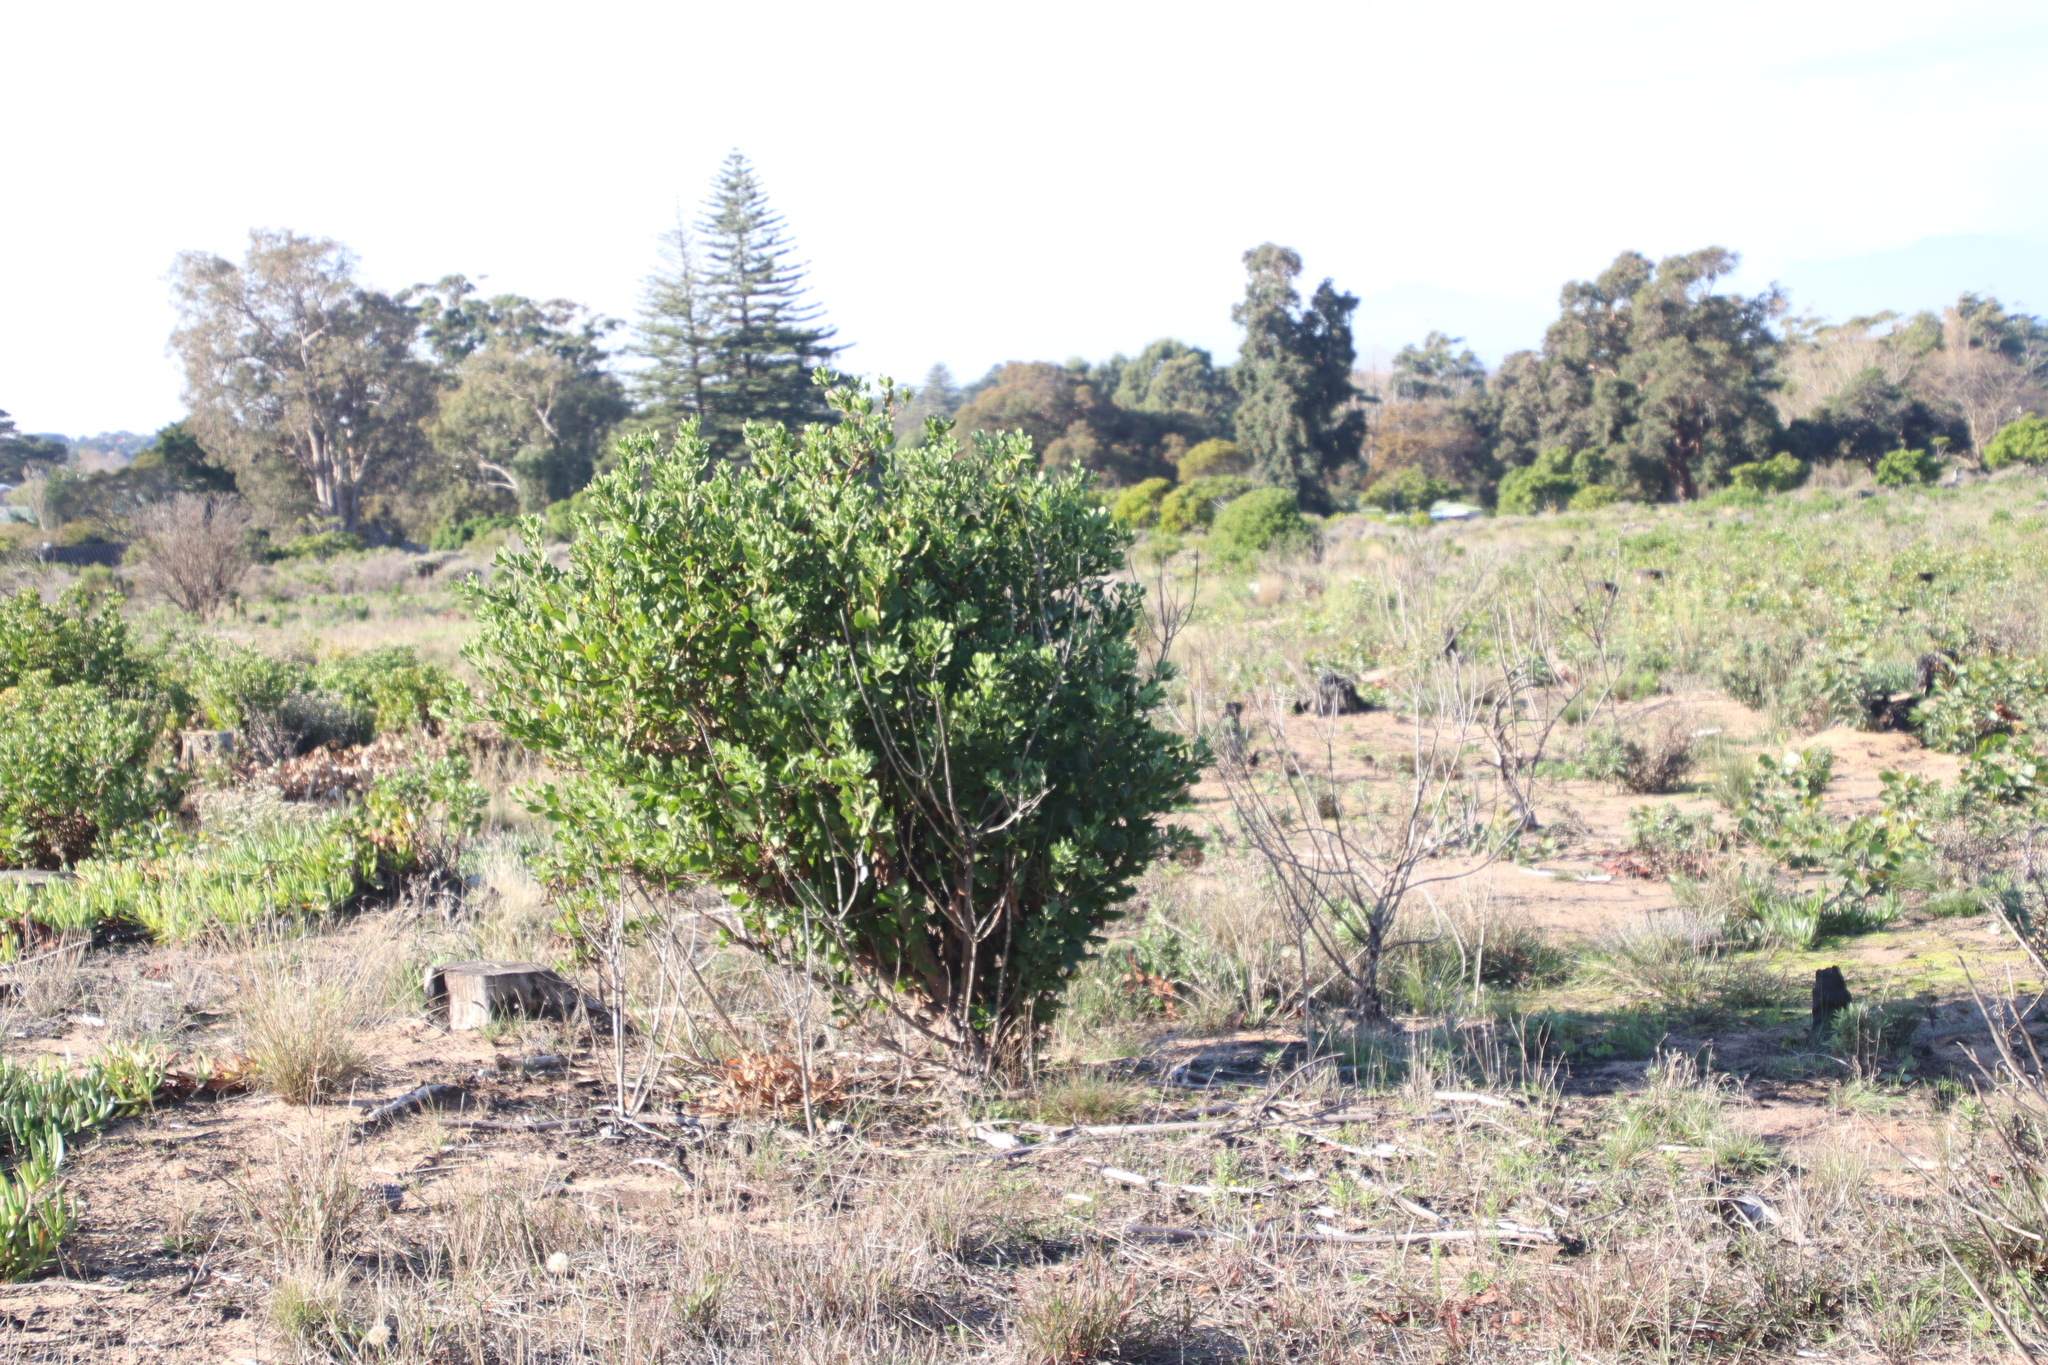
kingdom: Plantae
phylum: Tracheophyta
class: Magnoliopsida
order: Asterales
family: Asteraceae
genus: Osteospermum
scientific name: Osteospermum moniliferum
